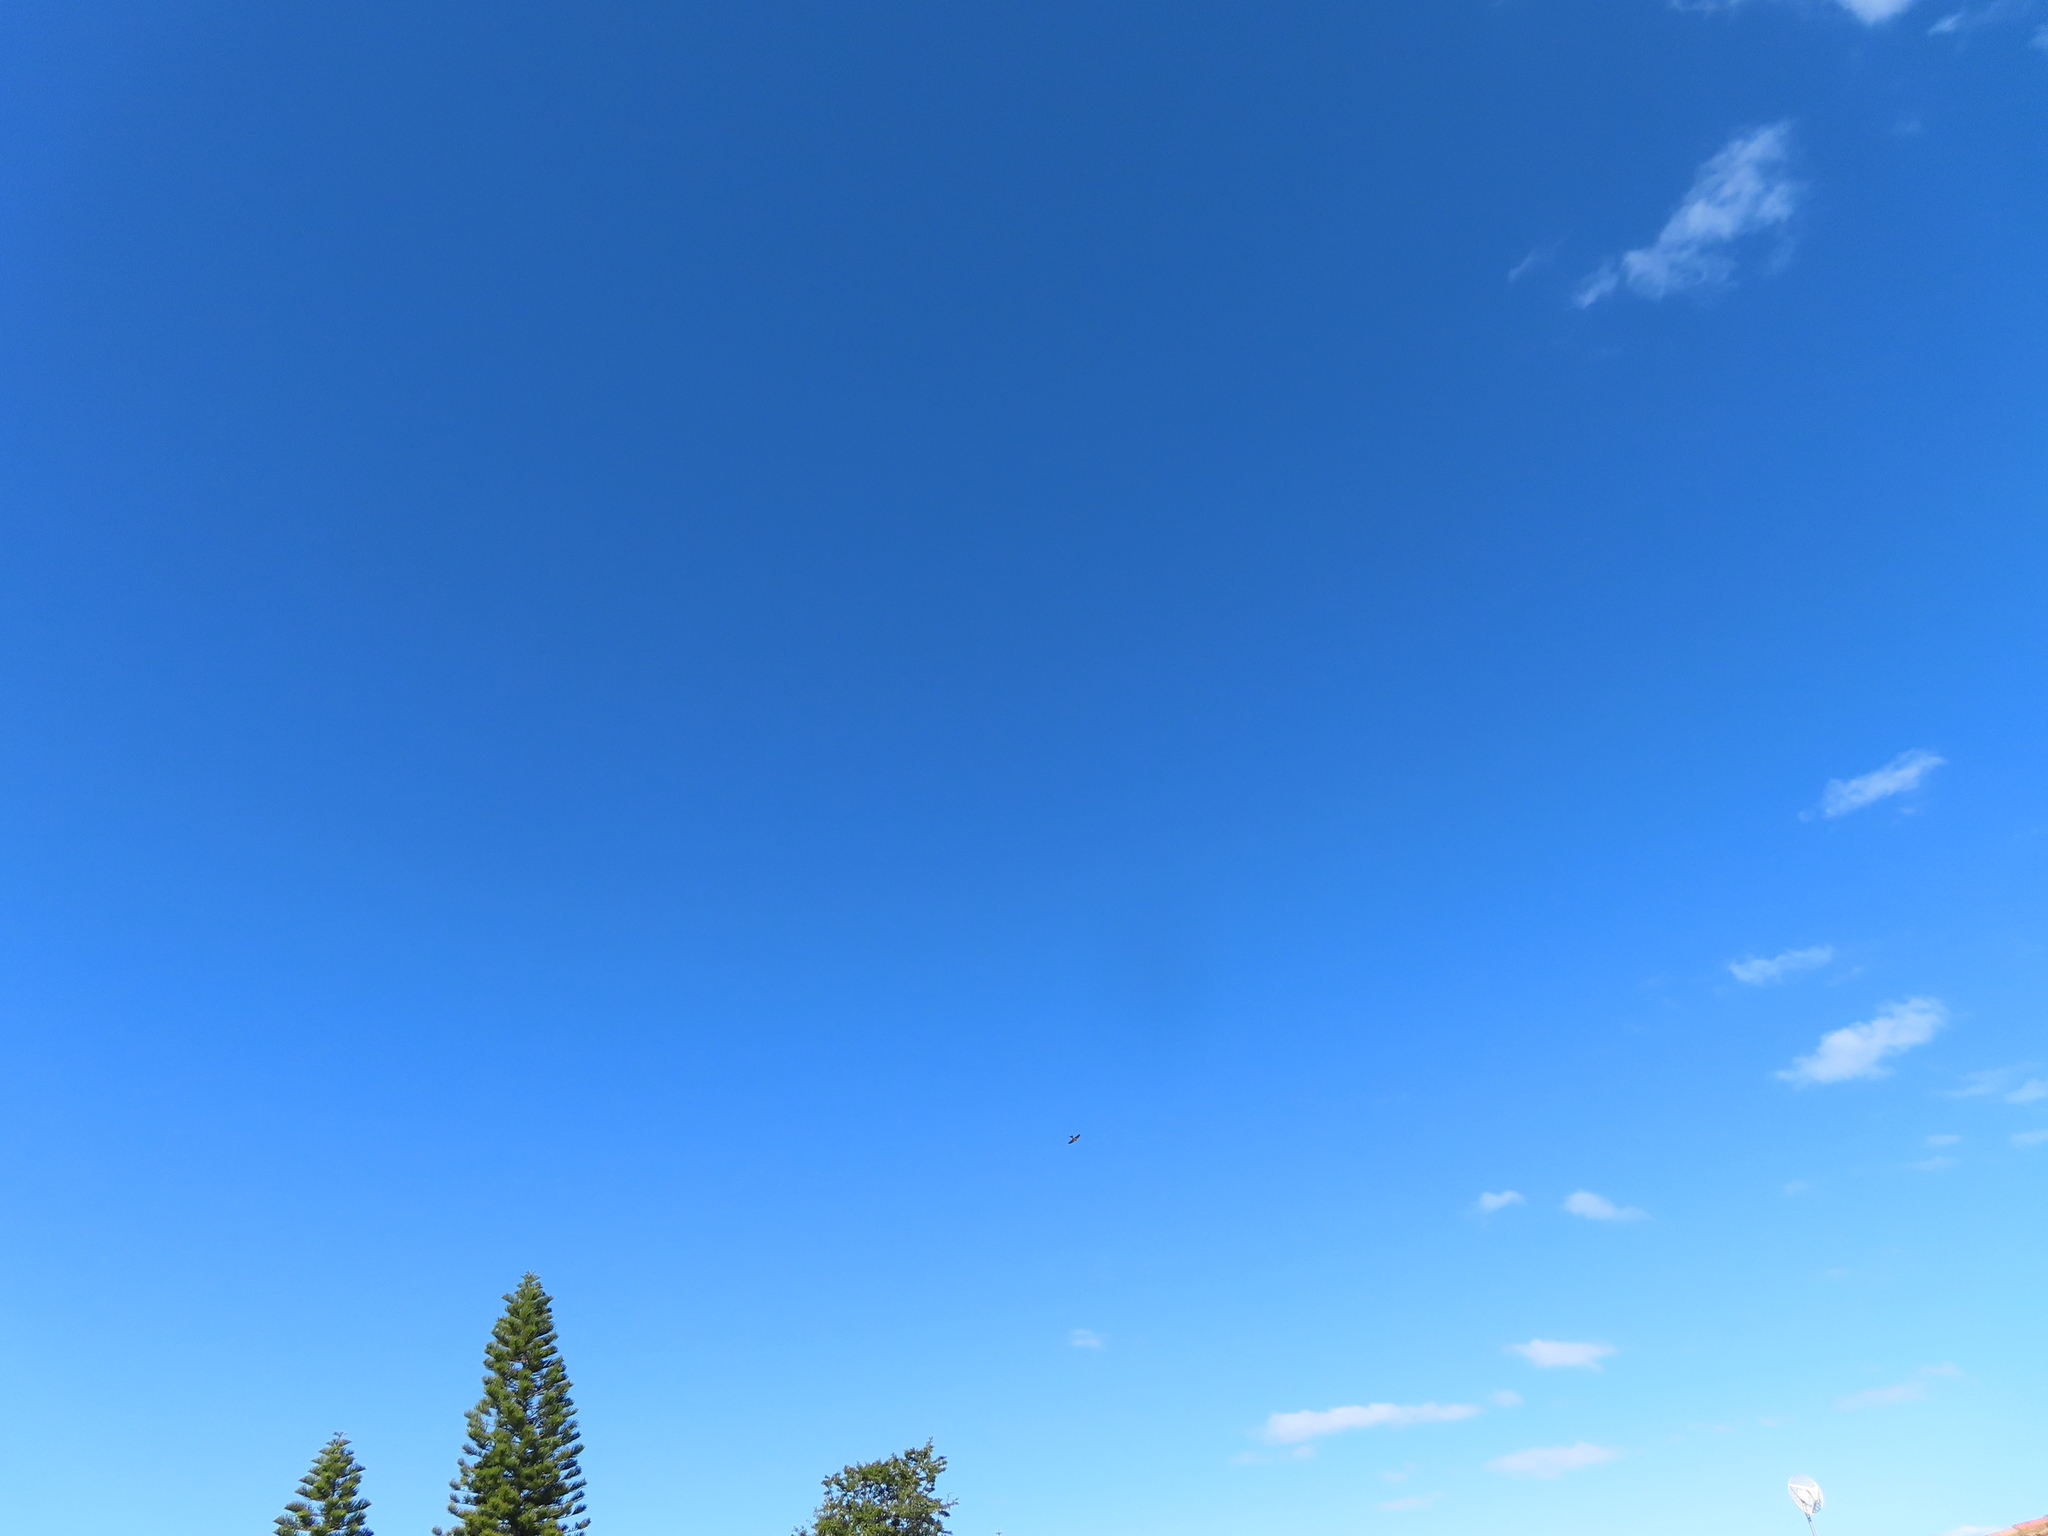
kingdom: Animalia
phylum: Chordata
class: Aves
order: Passeriformes
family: Hirundinidae
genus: Cecropis
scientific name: Cecropis cucullata
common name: Greater striped-swallow
